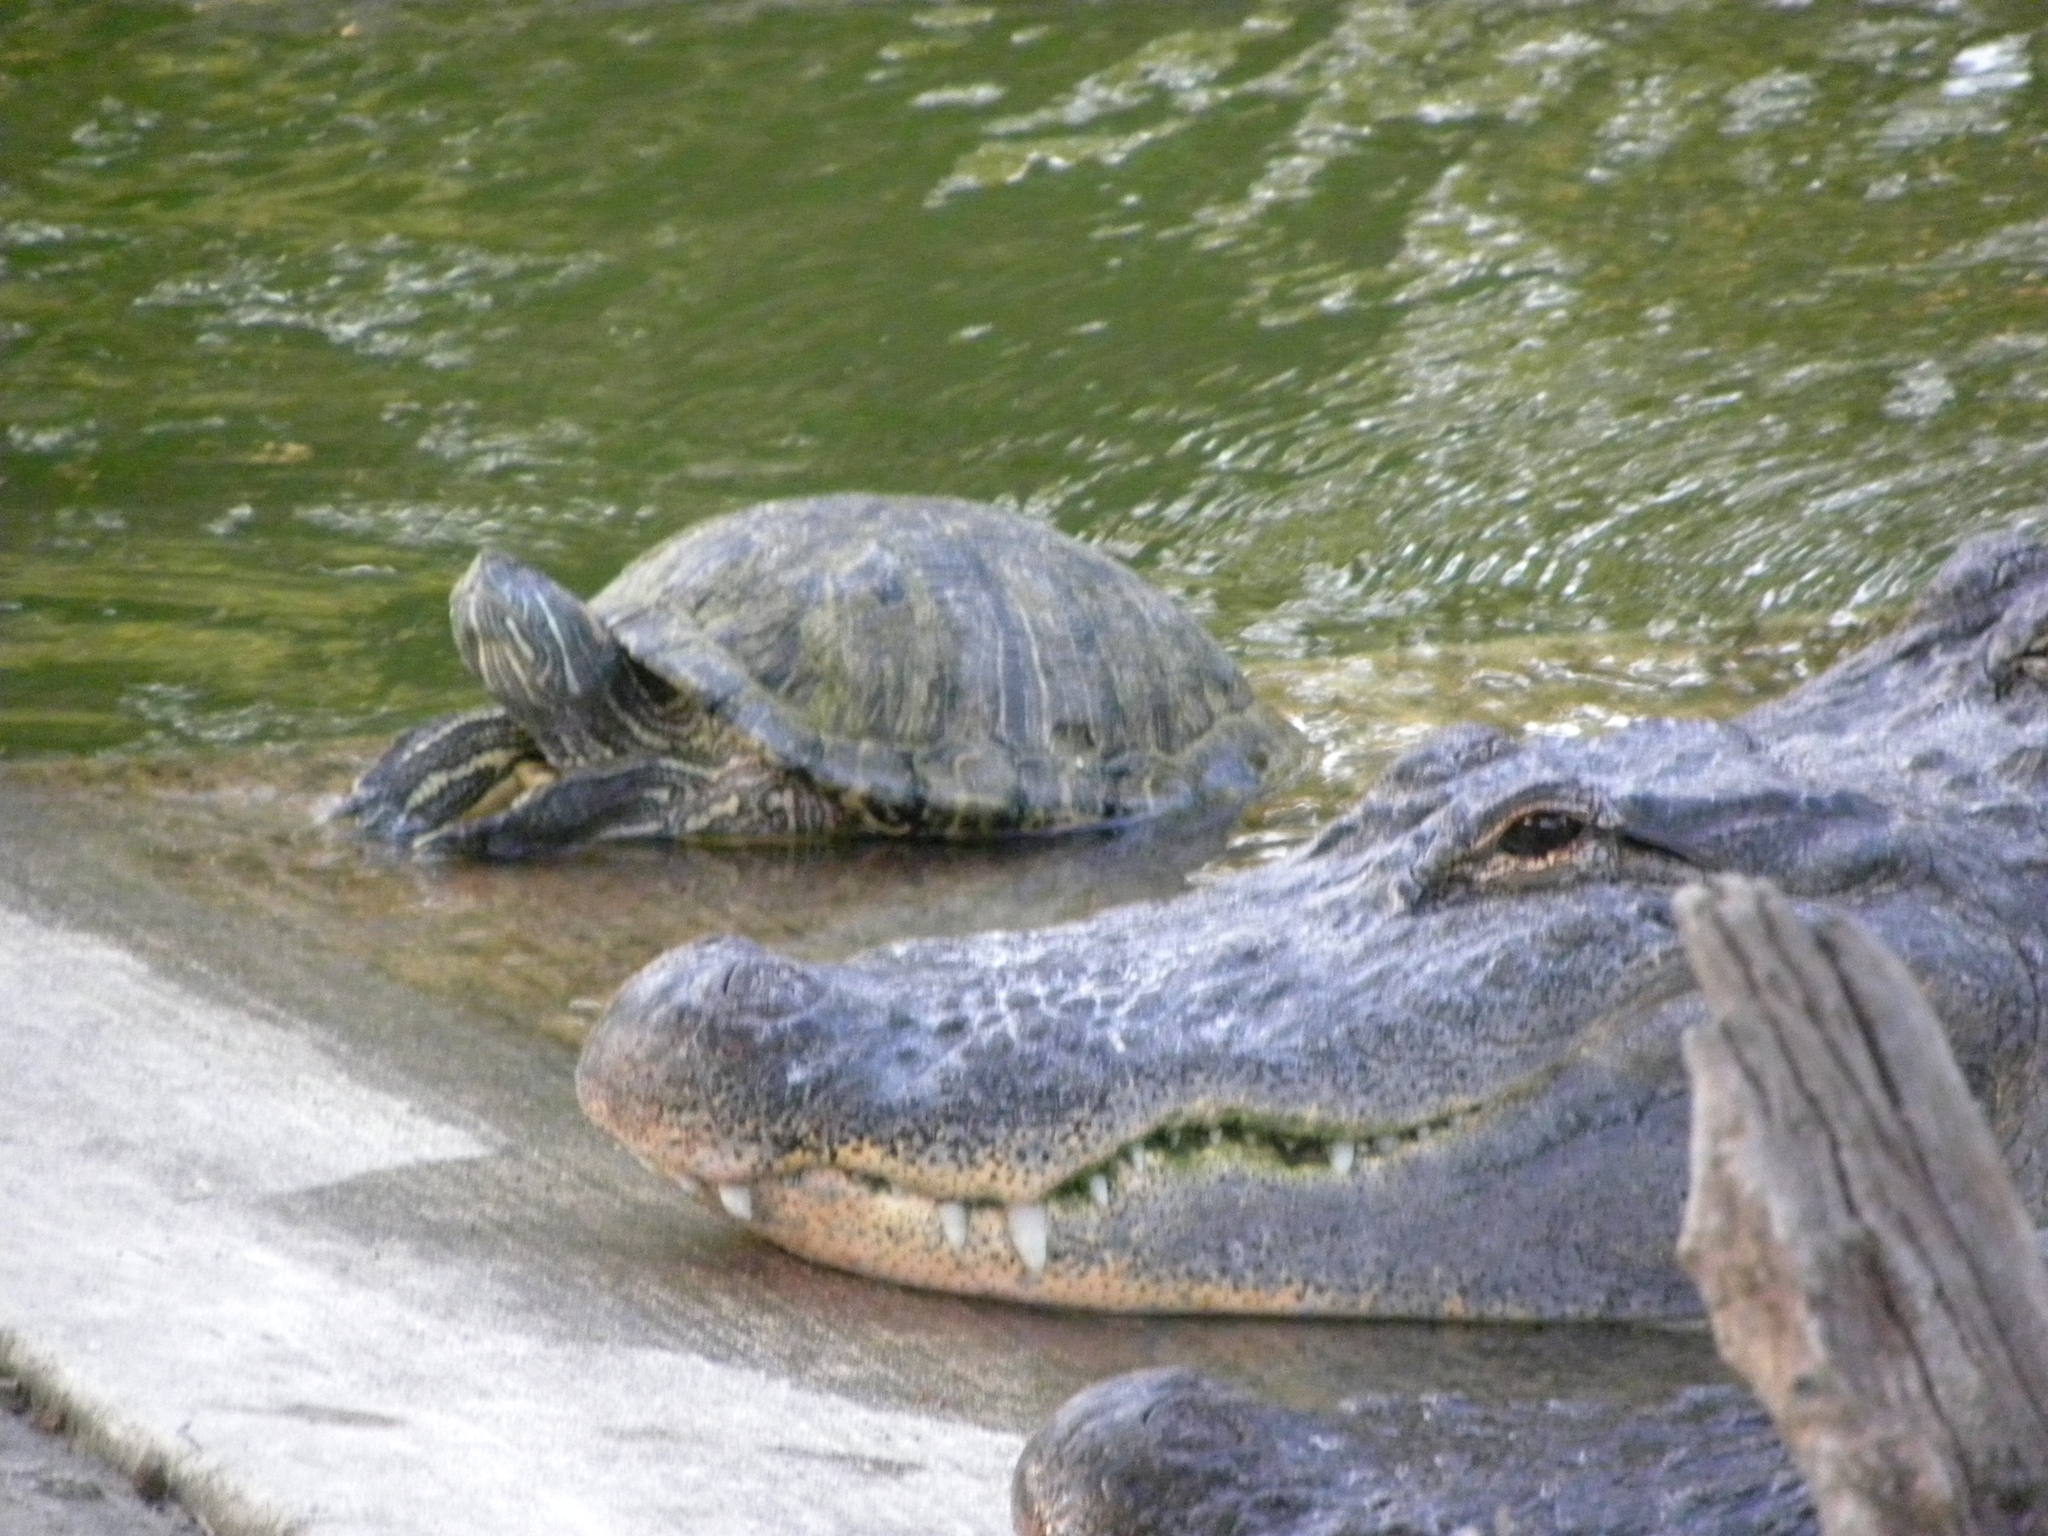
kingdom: Animalia
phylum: Chordata
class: Testudines
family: Emydidae
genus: Trachemys
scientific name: Trachemys scripta
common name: Slider
